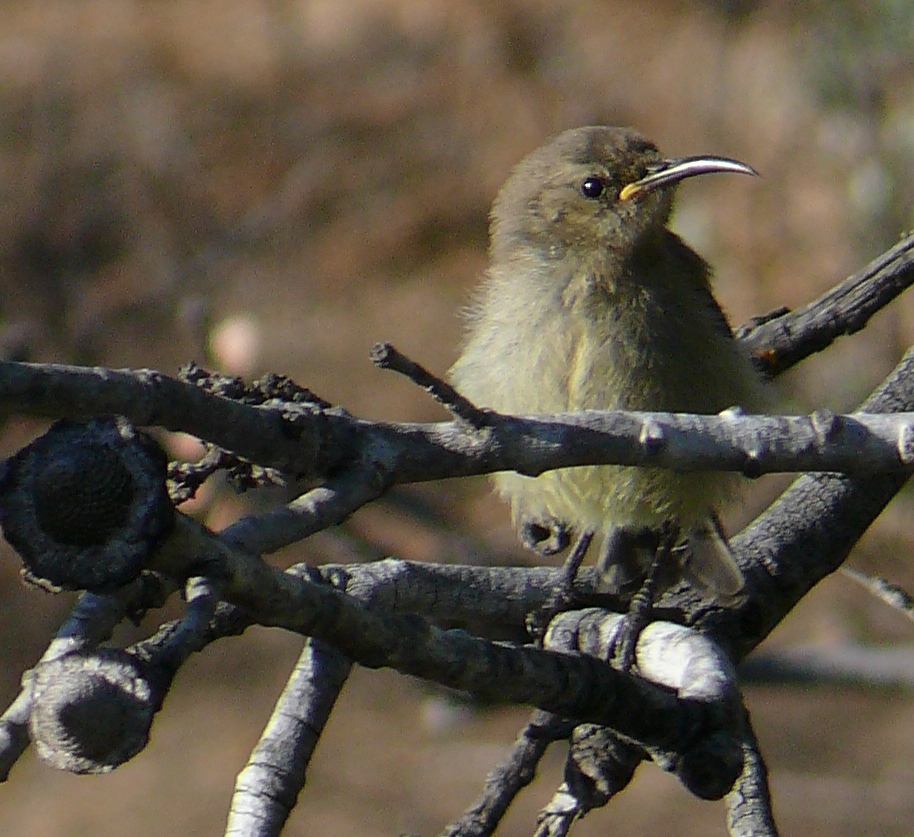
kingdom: Animalia
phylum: Chordata
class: Aves
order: Passeriformes
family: Nectariniidae
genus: Anthobaphes
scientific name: Anthobaphes violacea
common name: Orange-breasted sunbird
